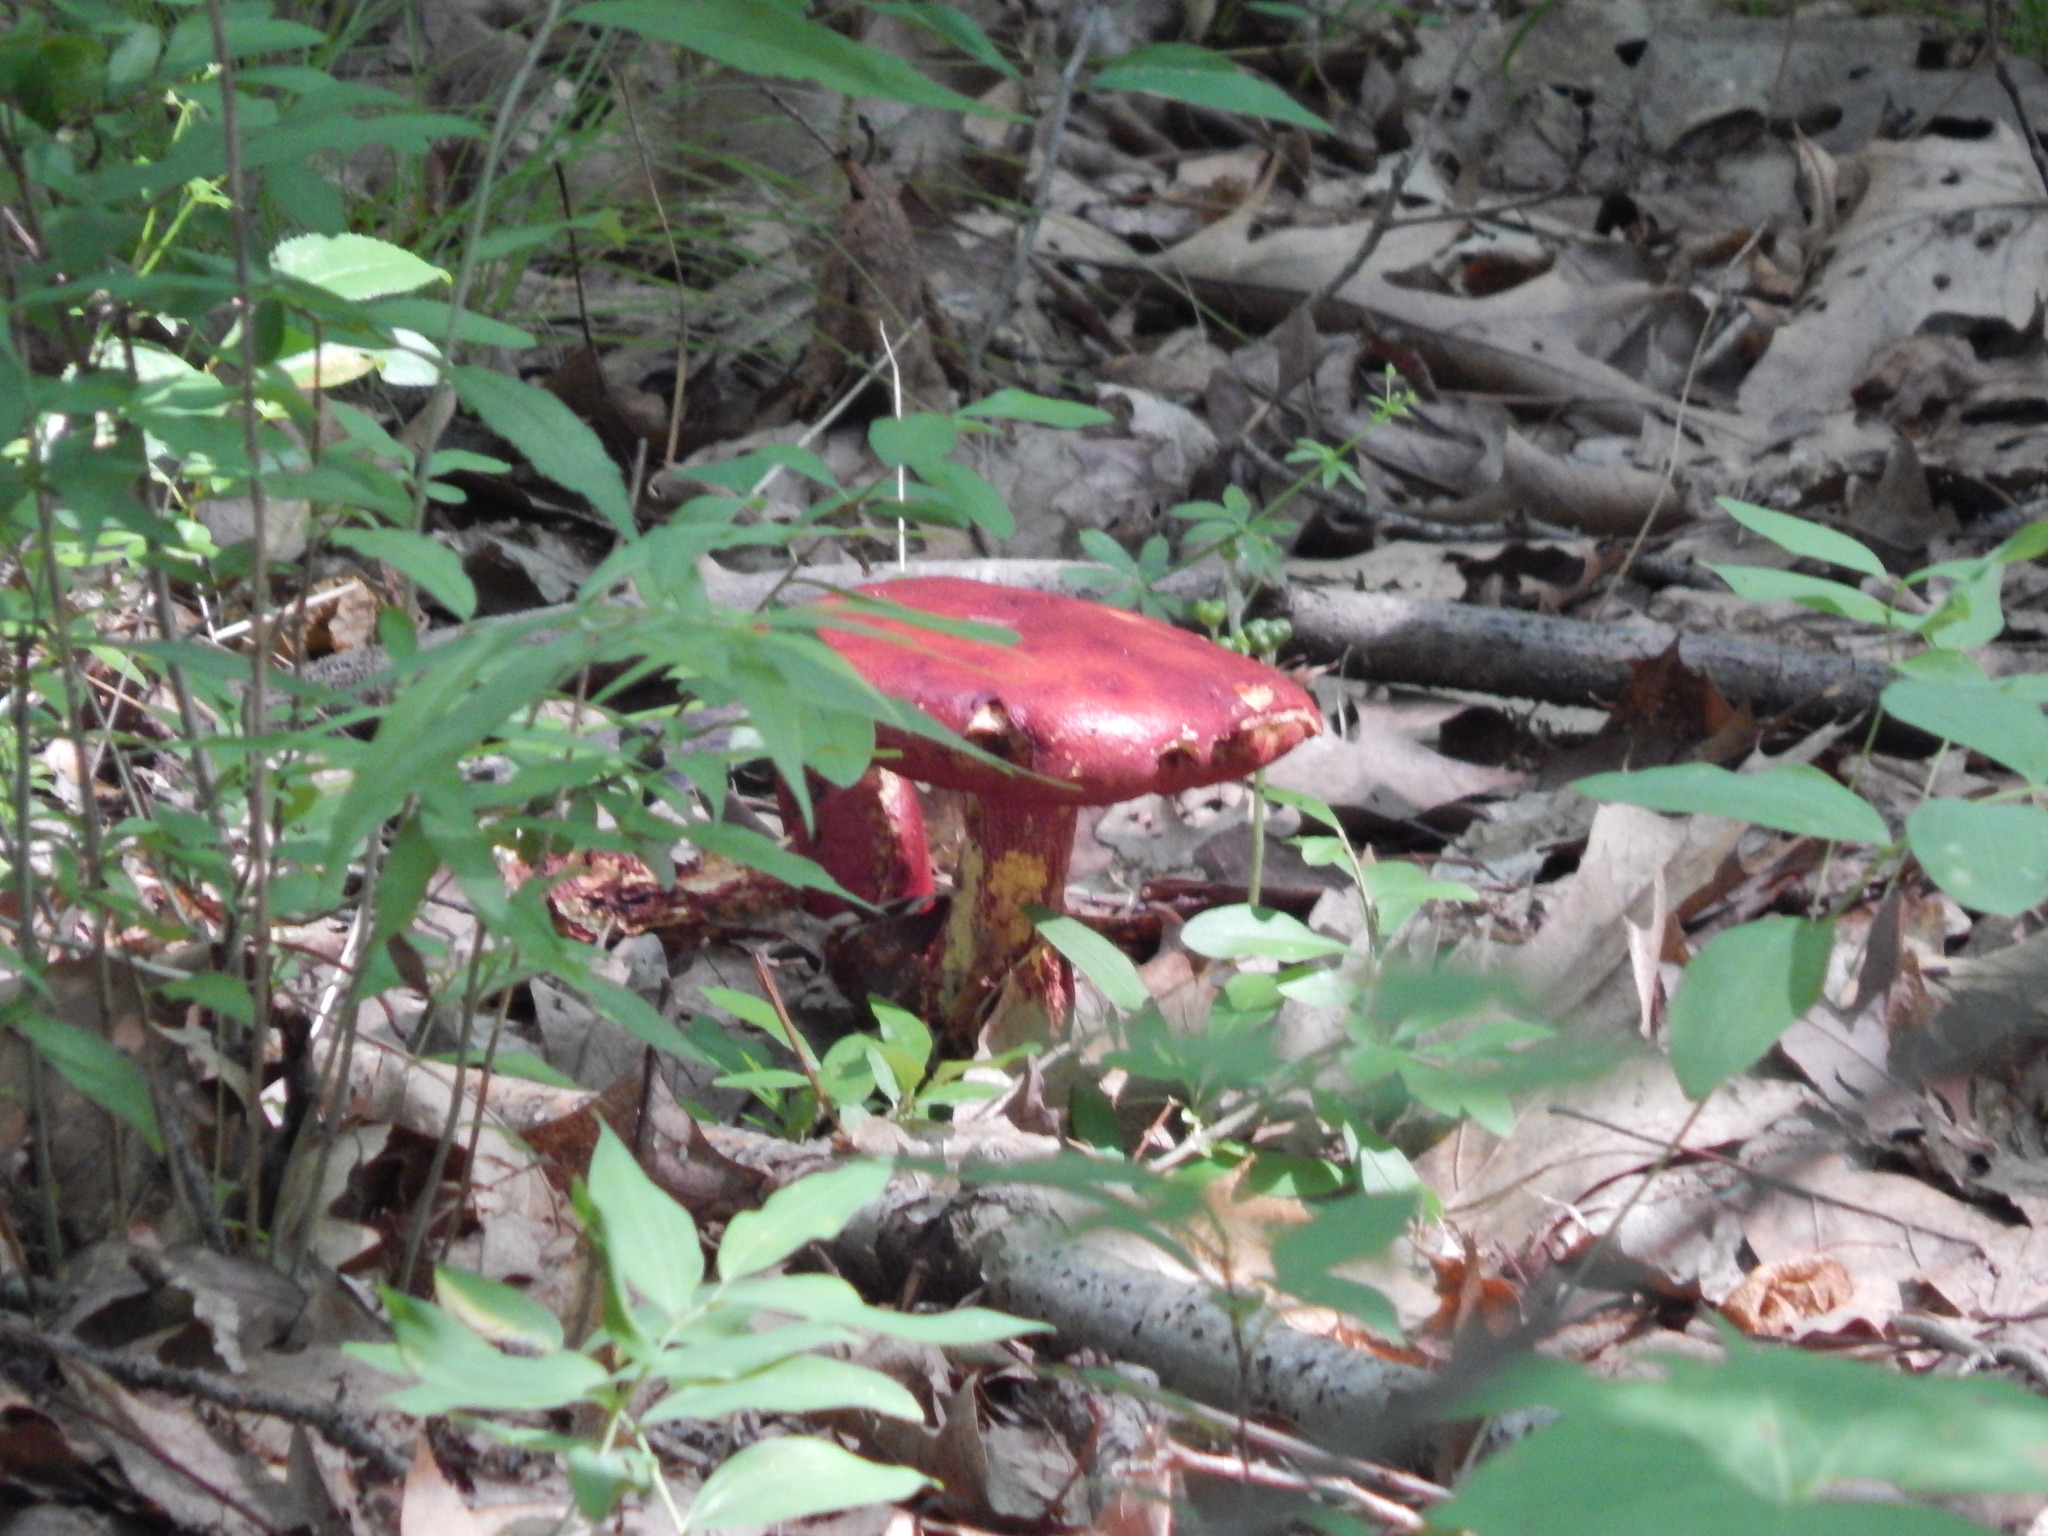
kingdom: Fungi
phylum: Basidiomycota
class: Agaricomycetes
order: Boletales
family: Boletaceae
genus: Butyriboletus
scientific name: Butyriboletus frostii
